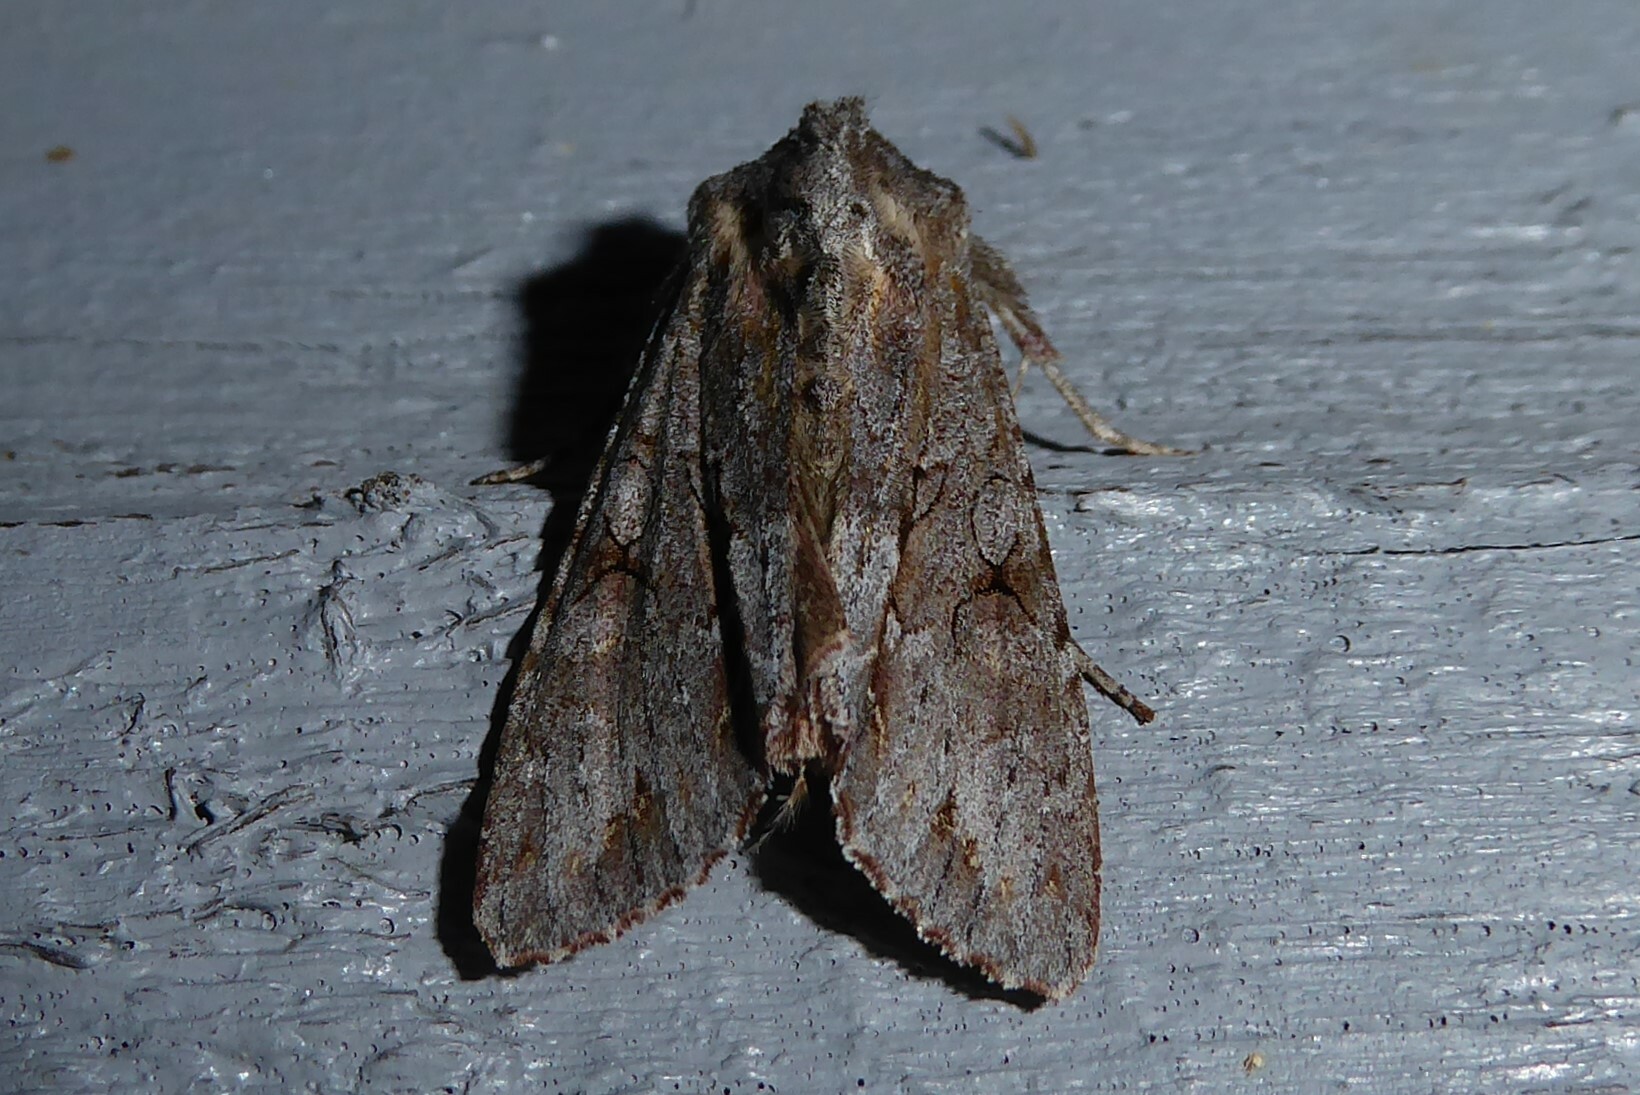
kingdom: Animalia
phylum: Arthropoda
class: Insecta
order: Lepidoptera
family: Noctuidae
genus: Ichneutica
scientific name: Ichneutica
